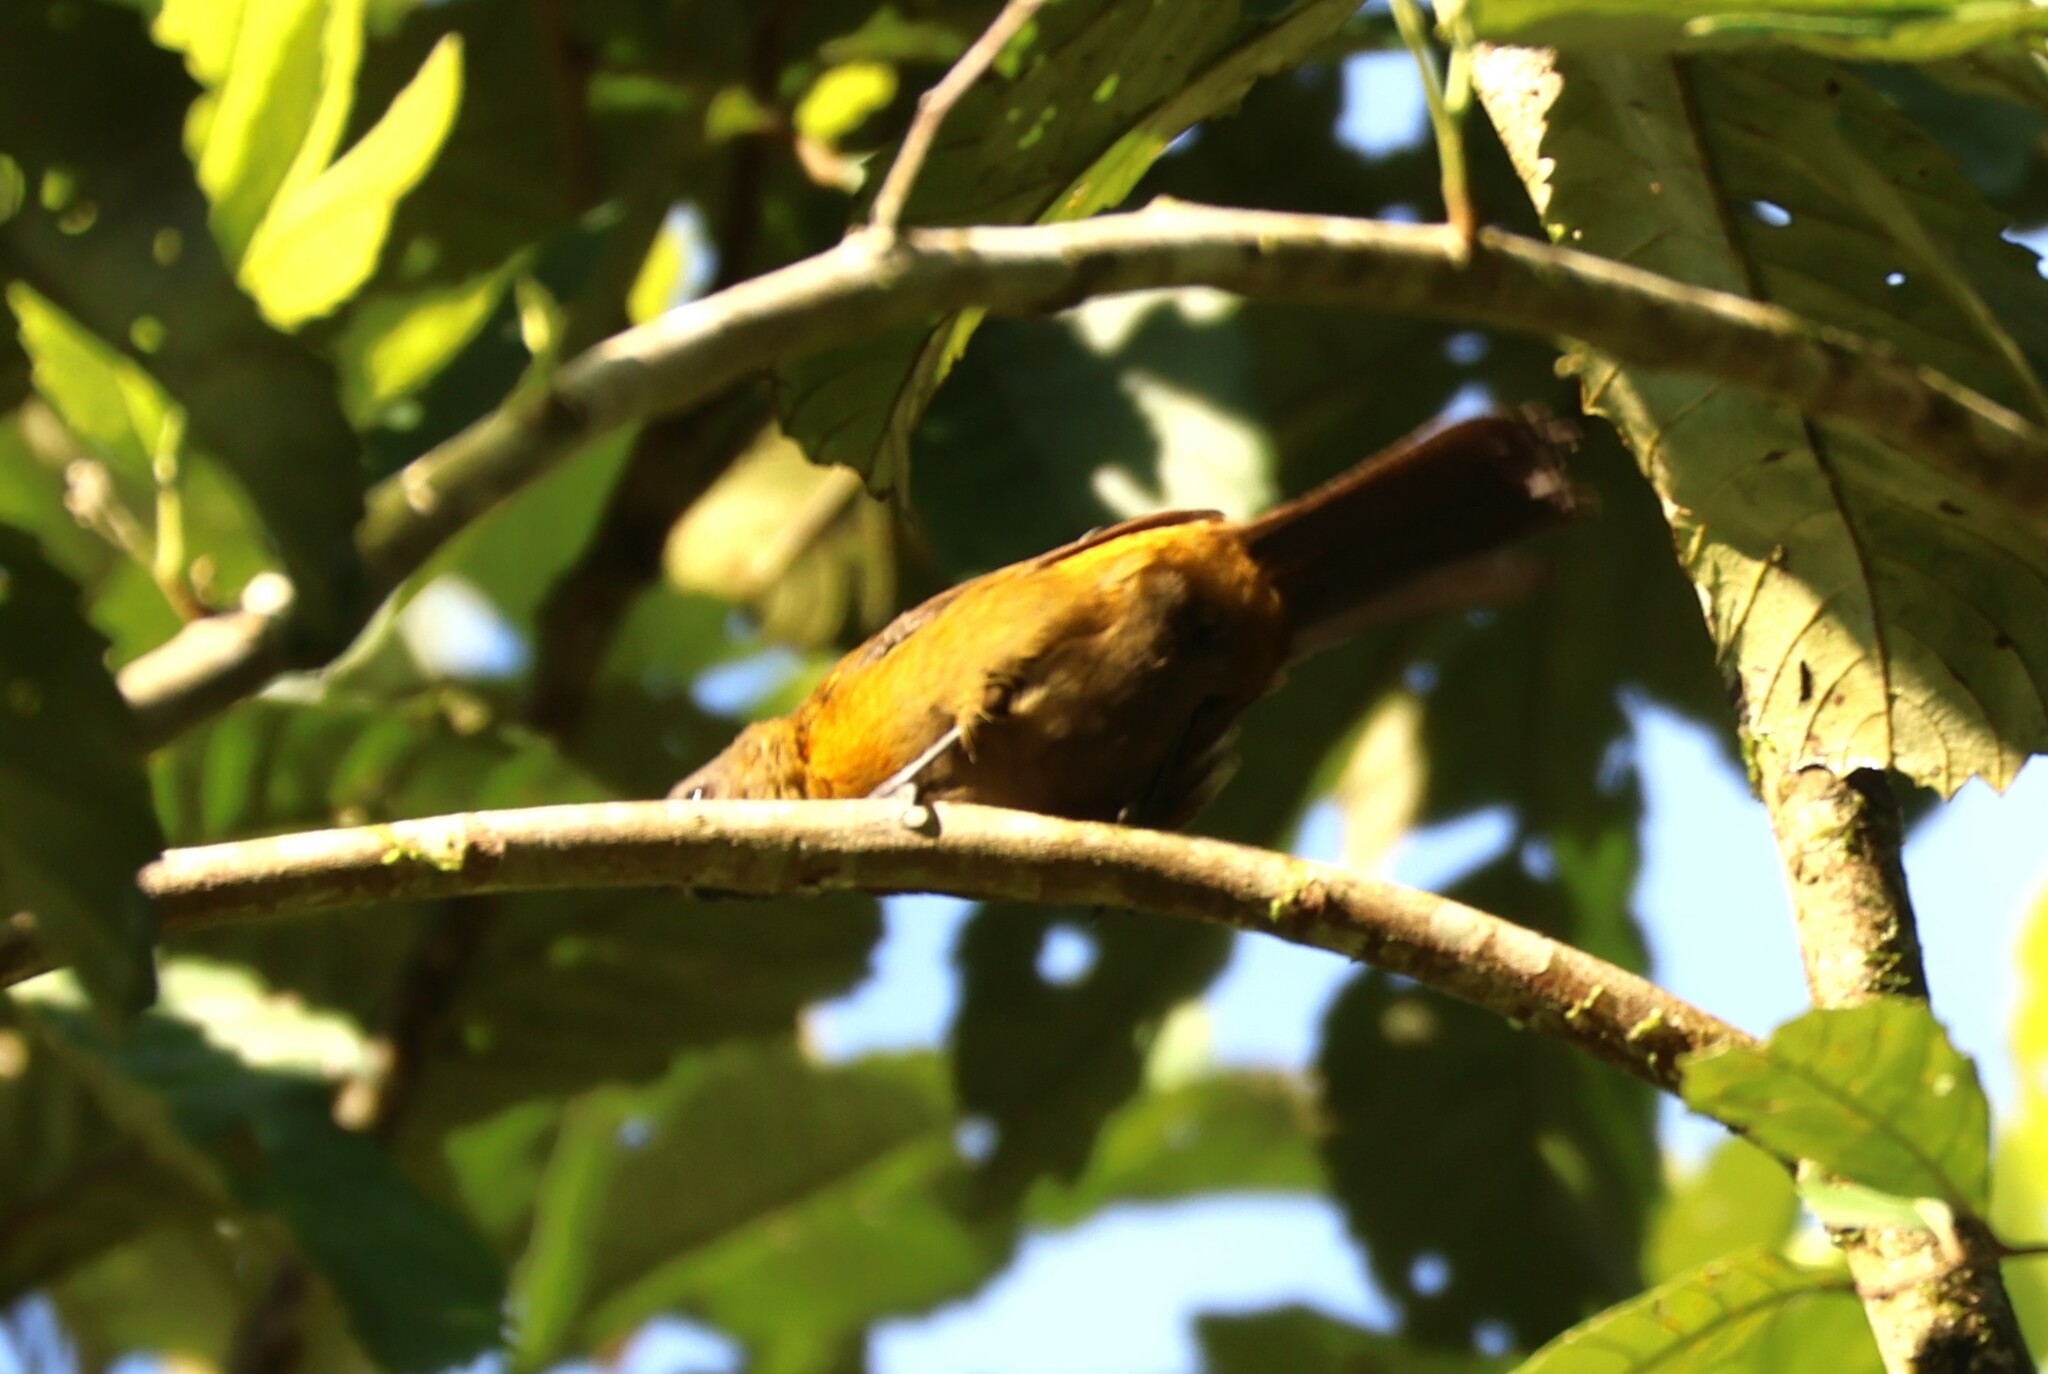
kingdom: Animalia
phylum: Chordata
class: Aves
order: Passeriformes
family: Thraupidae
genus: Ramphocelus
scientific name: Ramphocelus passerinii
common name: Passerini's tanager
